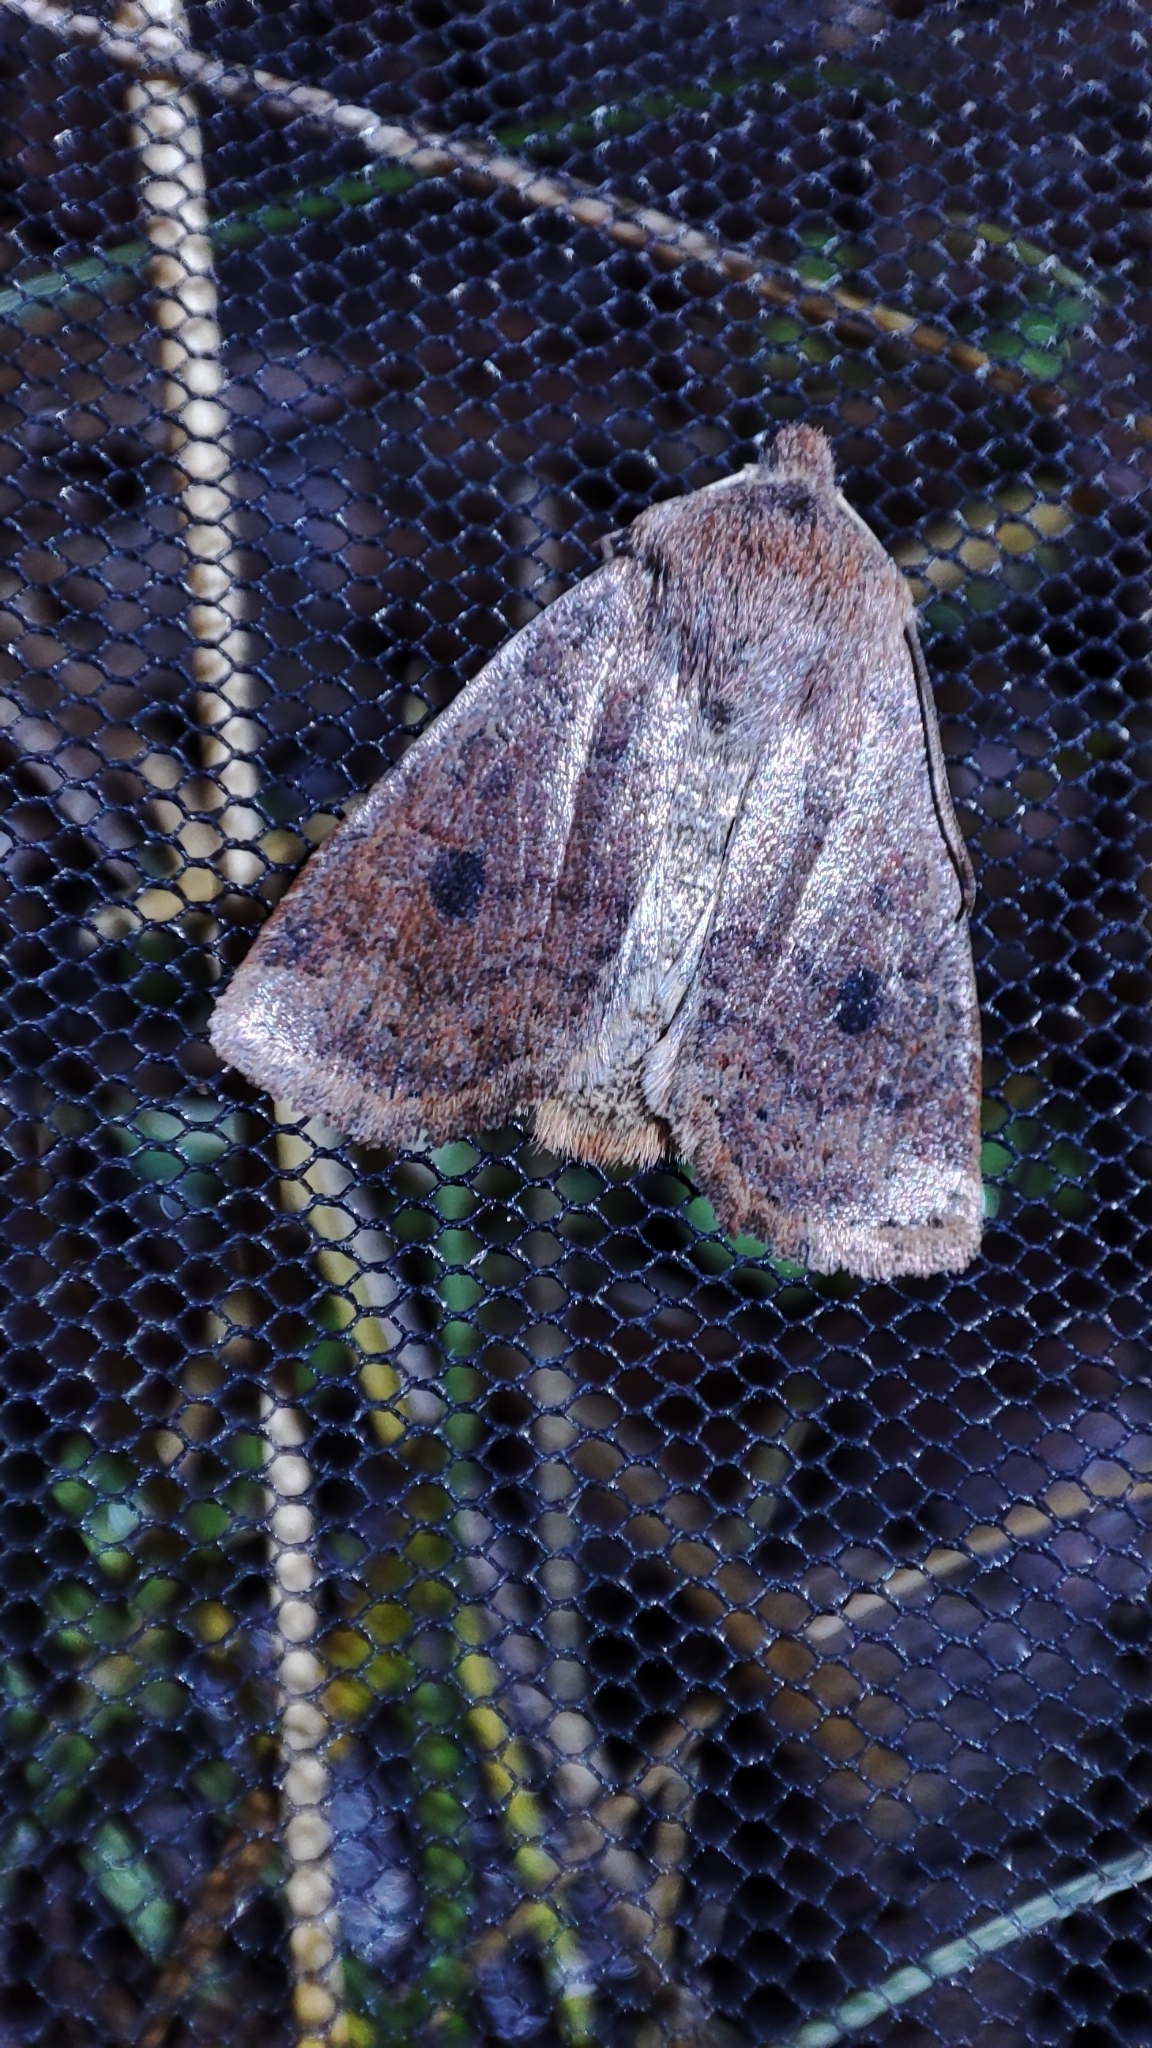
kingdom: Animalia
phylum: Arthropoda
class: Insecta
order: Lepidoptera
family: Noctuidae
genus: Conistra
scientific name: Conistra vaccinii
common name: Chestnut
